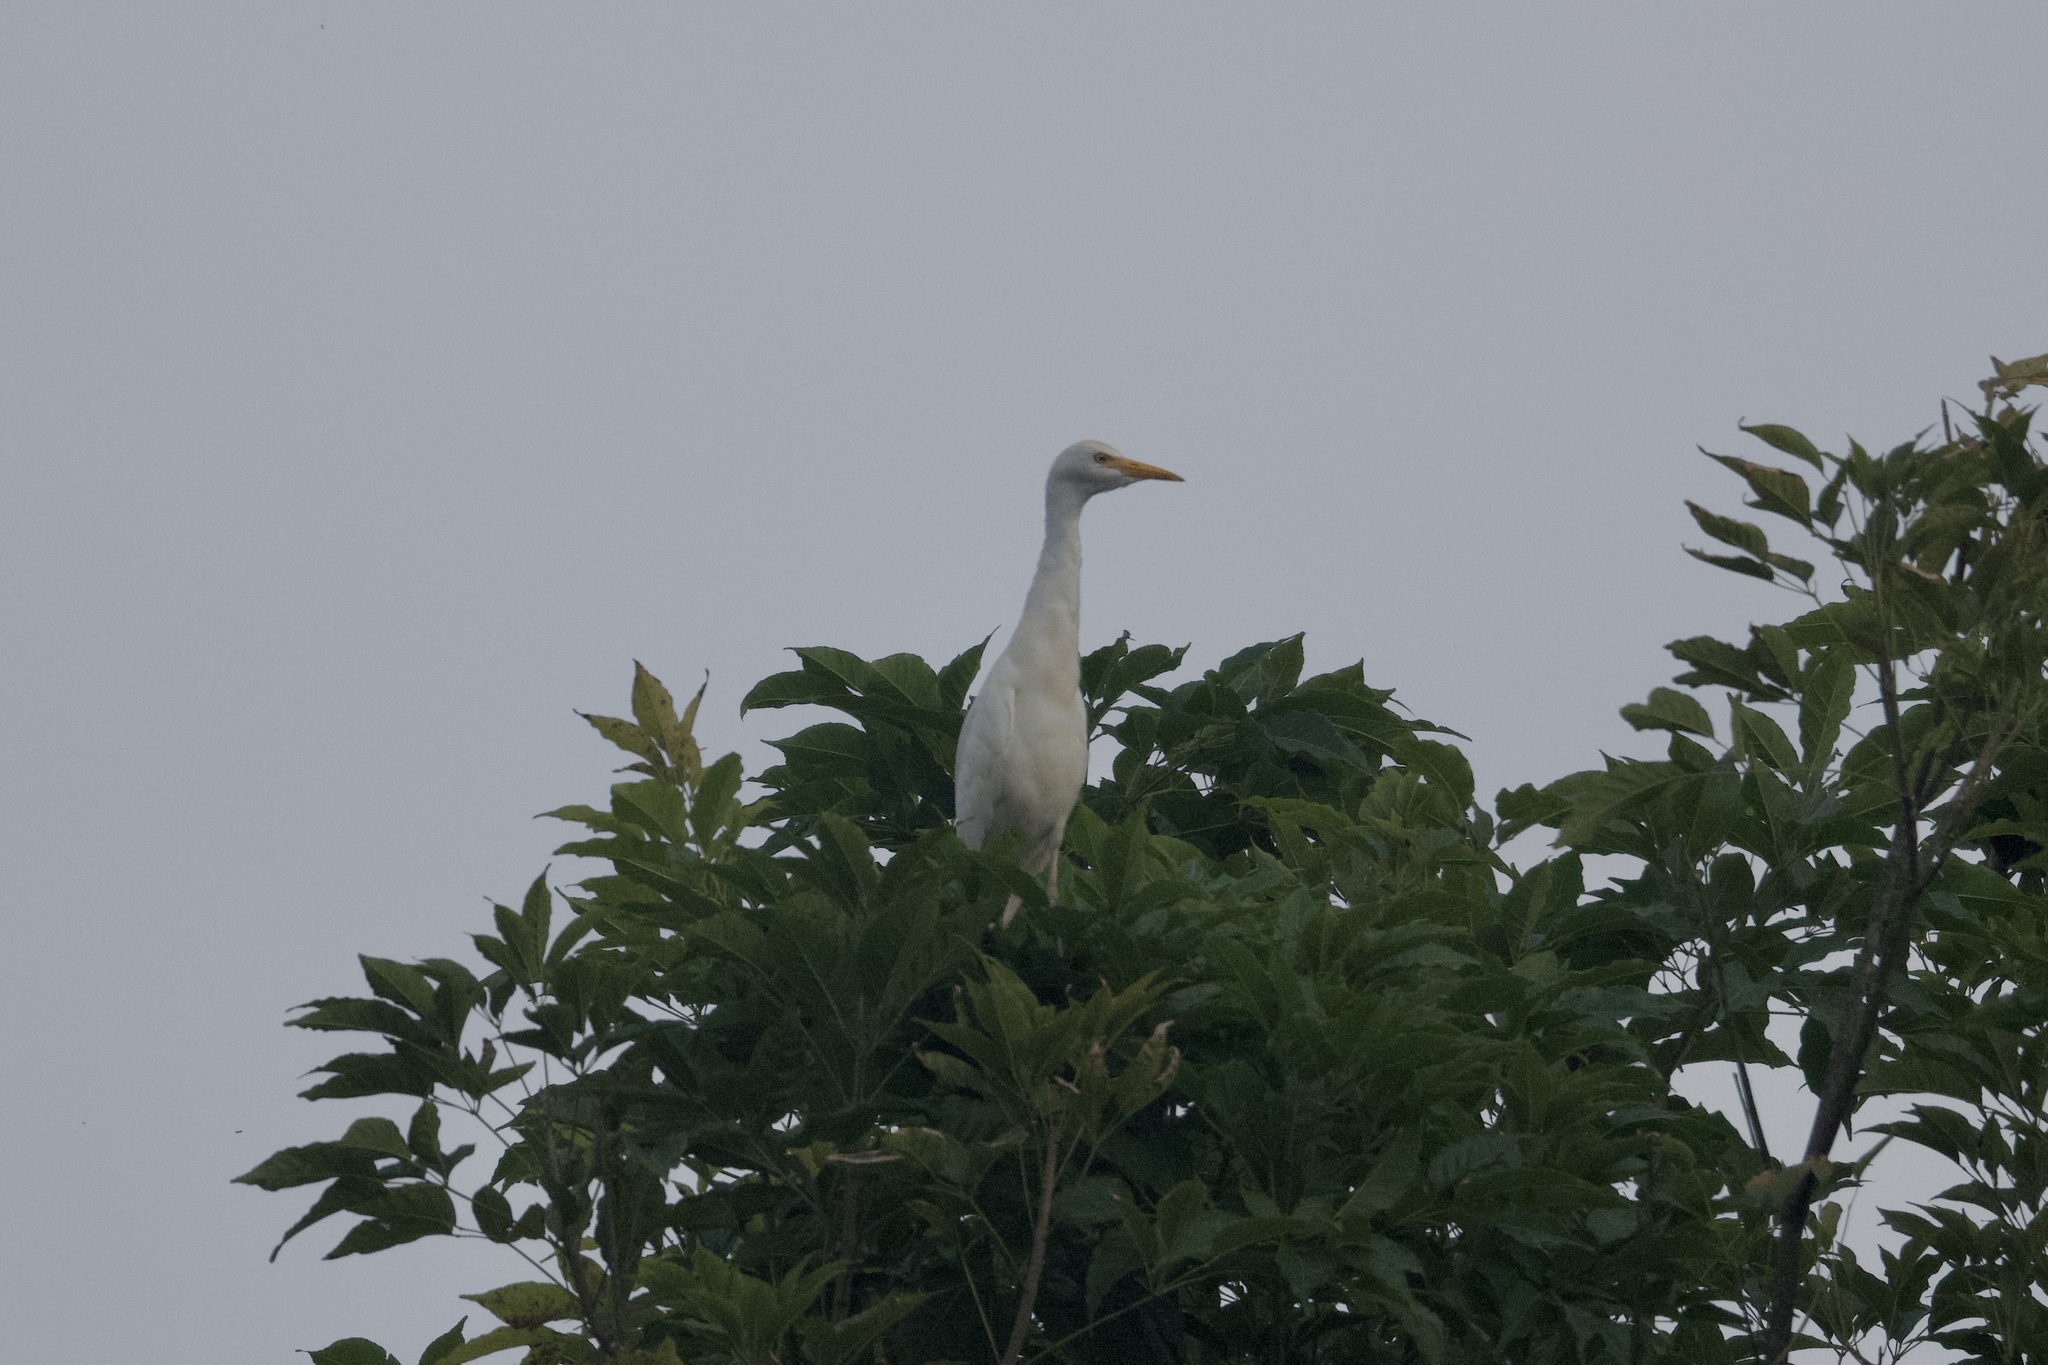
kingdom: Animalia
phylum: Chordata
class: Aves
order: Pelecaniformes
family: Ardeidae
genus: Bubulcus
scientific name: Bubulcus ibis
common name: Cattle egret
